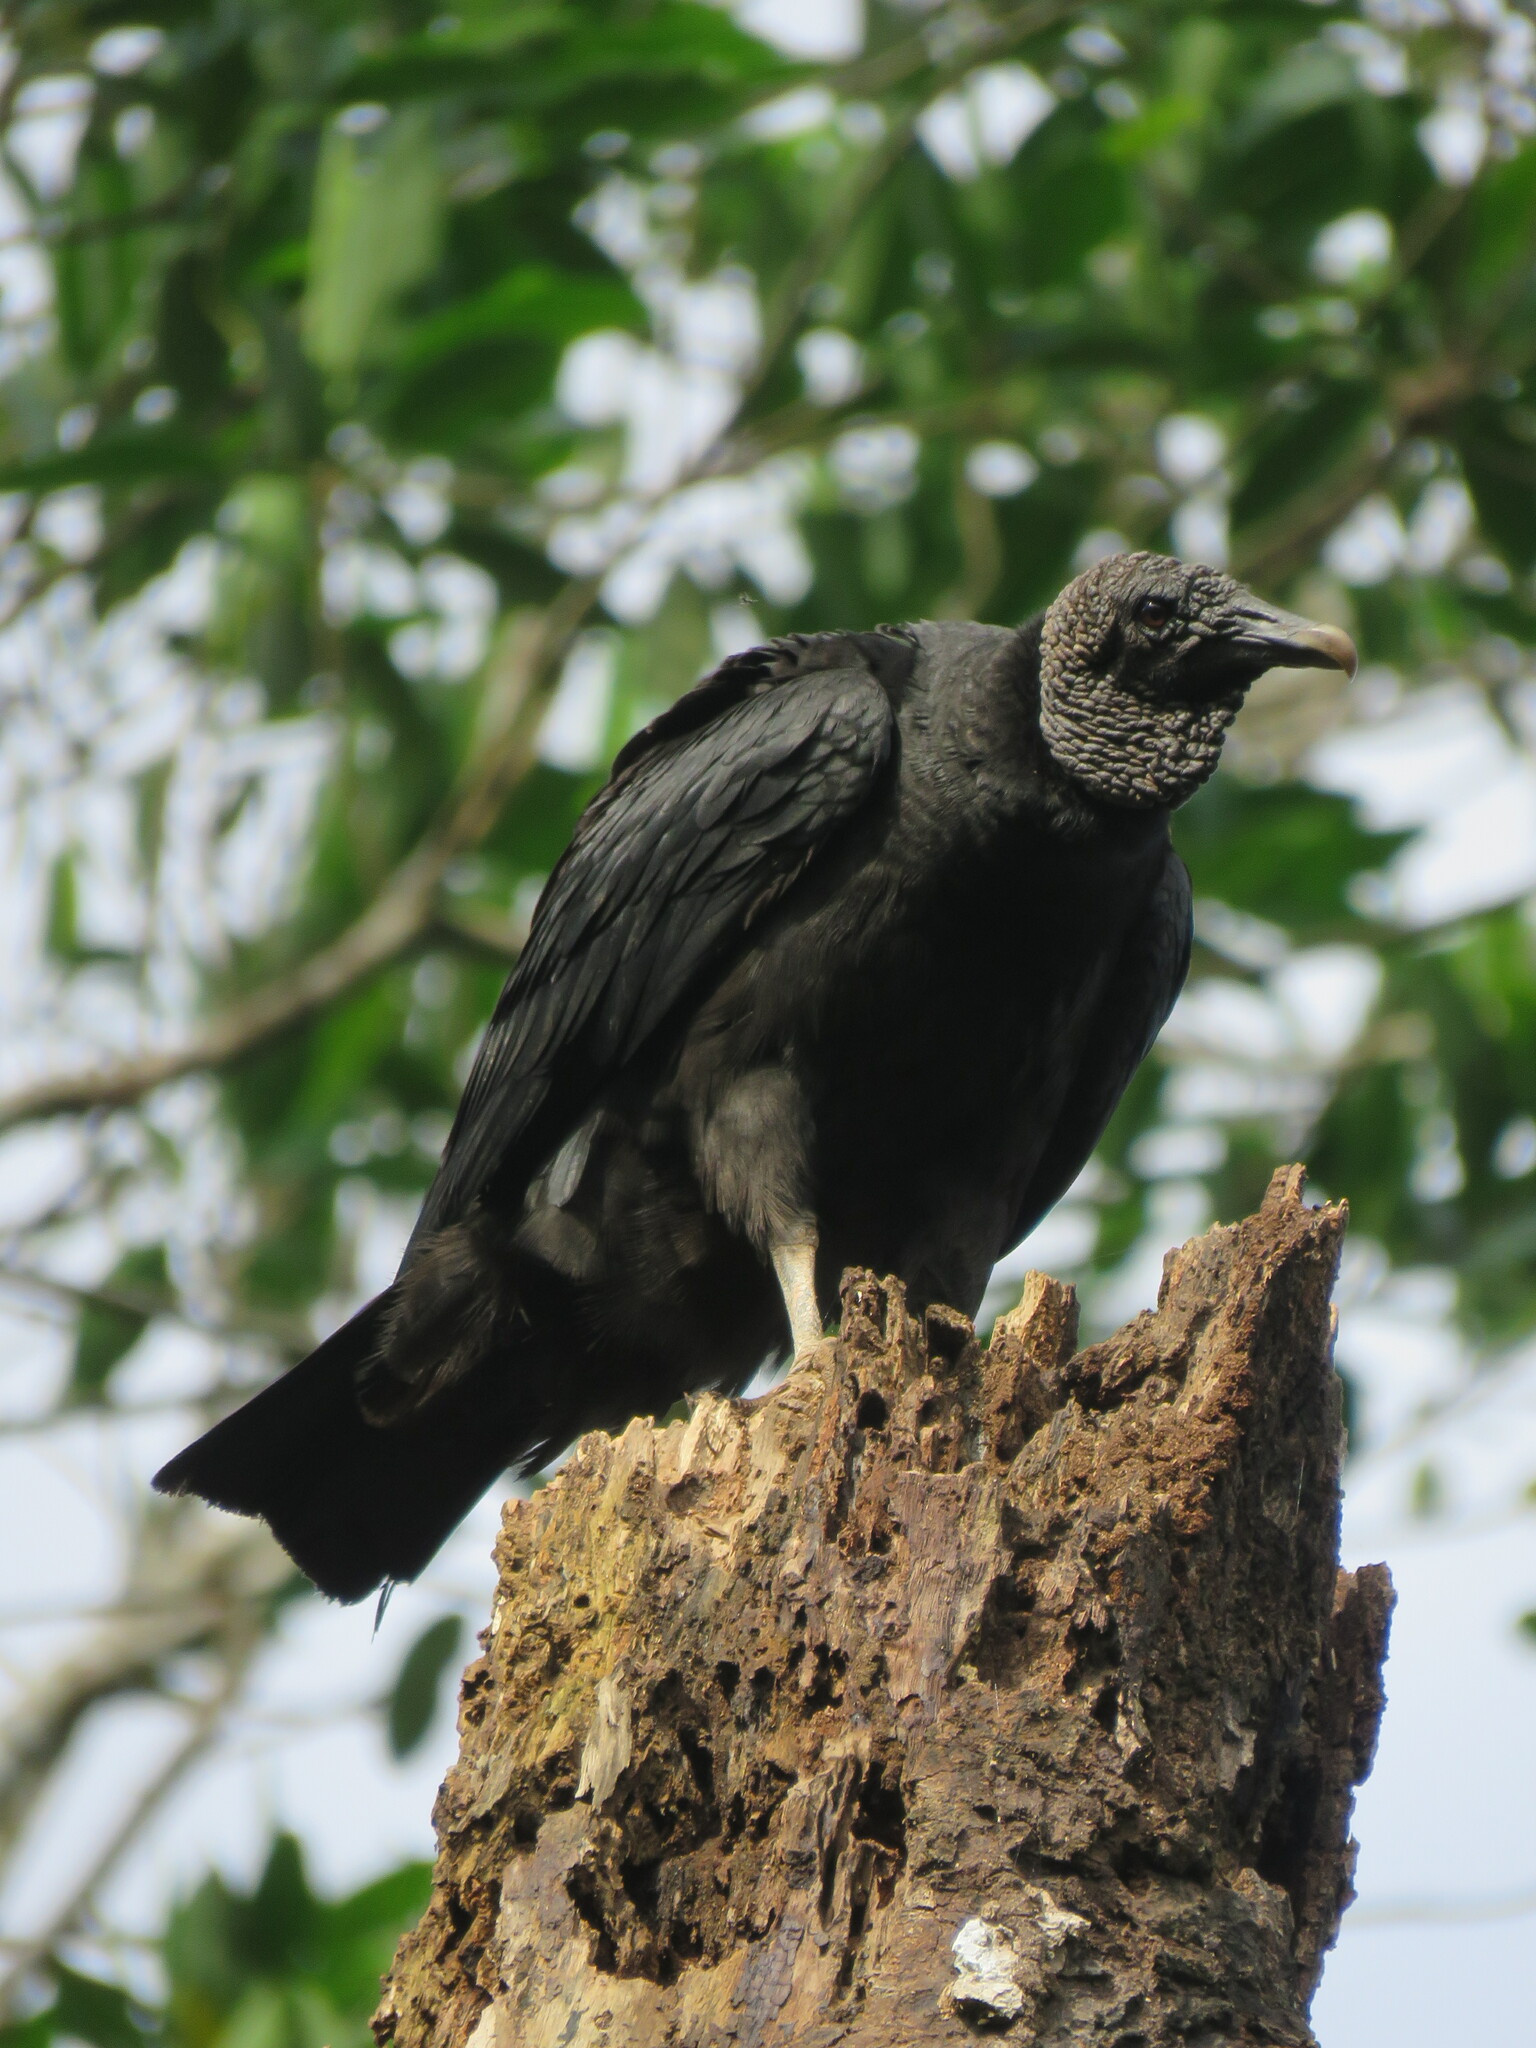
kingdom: Animalia
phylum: Chordata
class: Aves
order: Accipitriformes
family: Cathartidae
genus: Coragyps
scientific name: Coragyps atratus
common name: Black vulture
